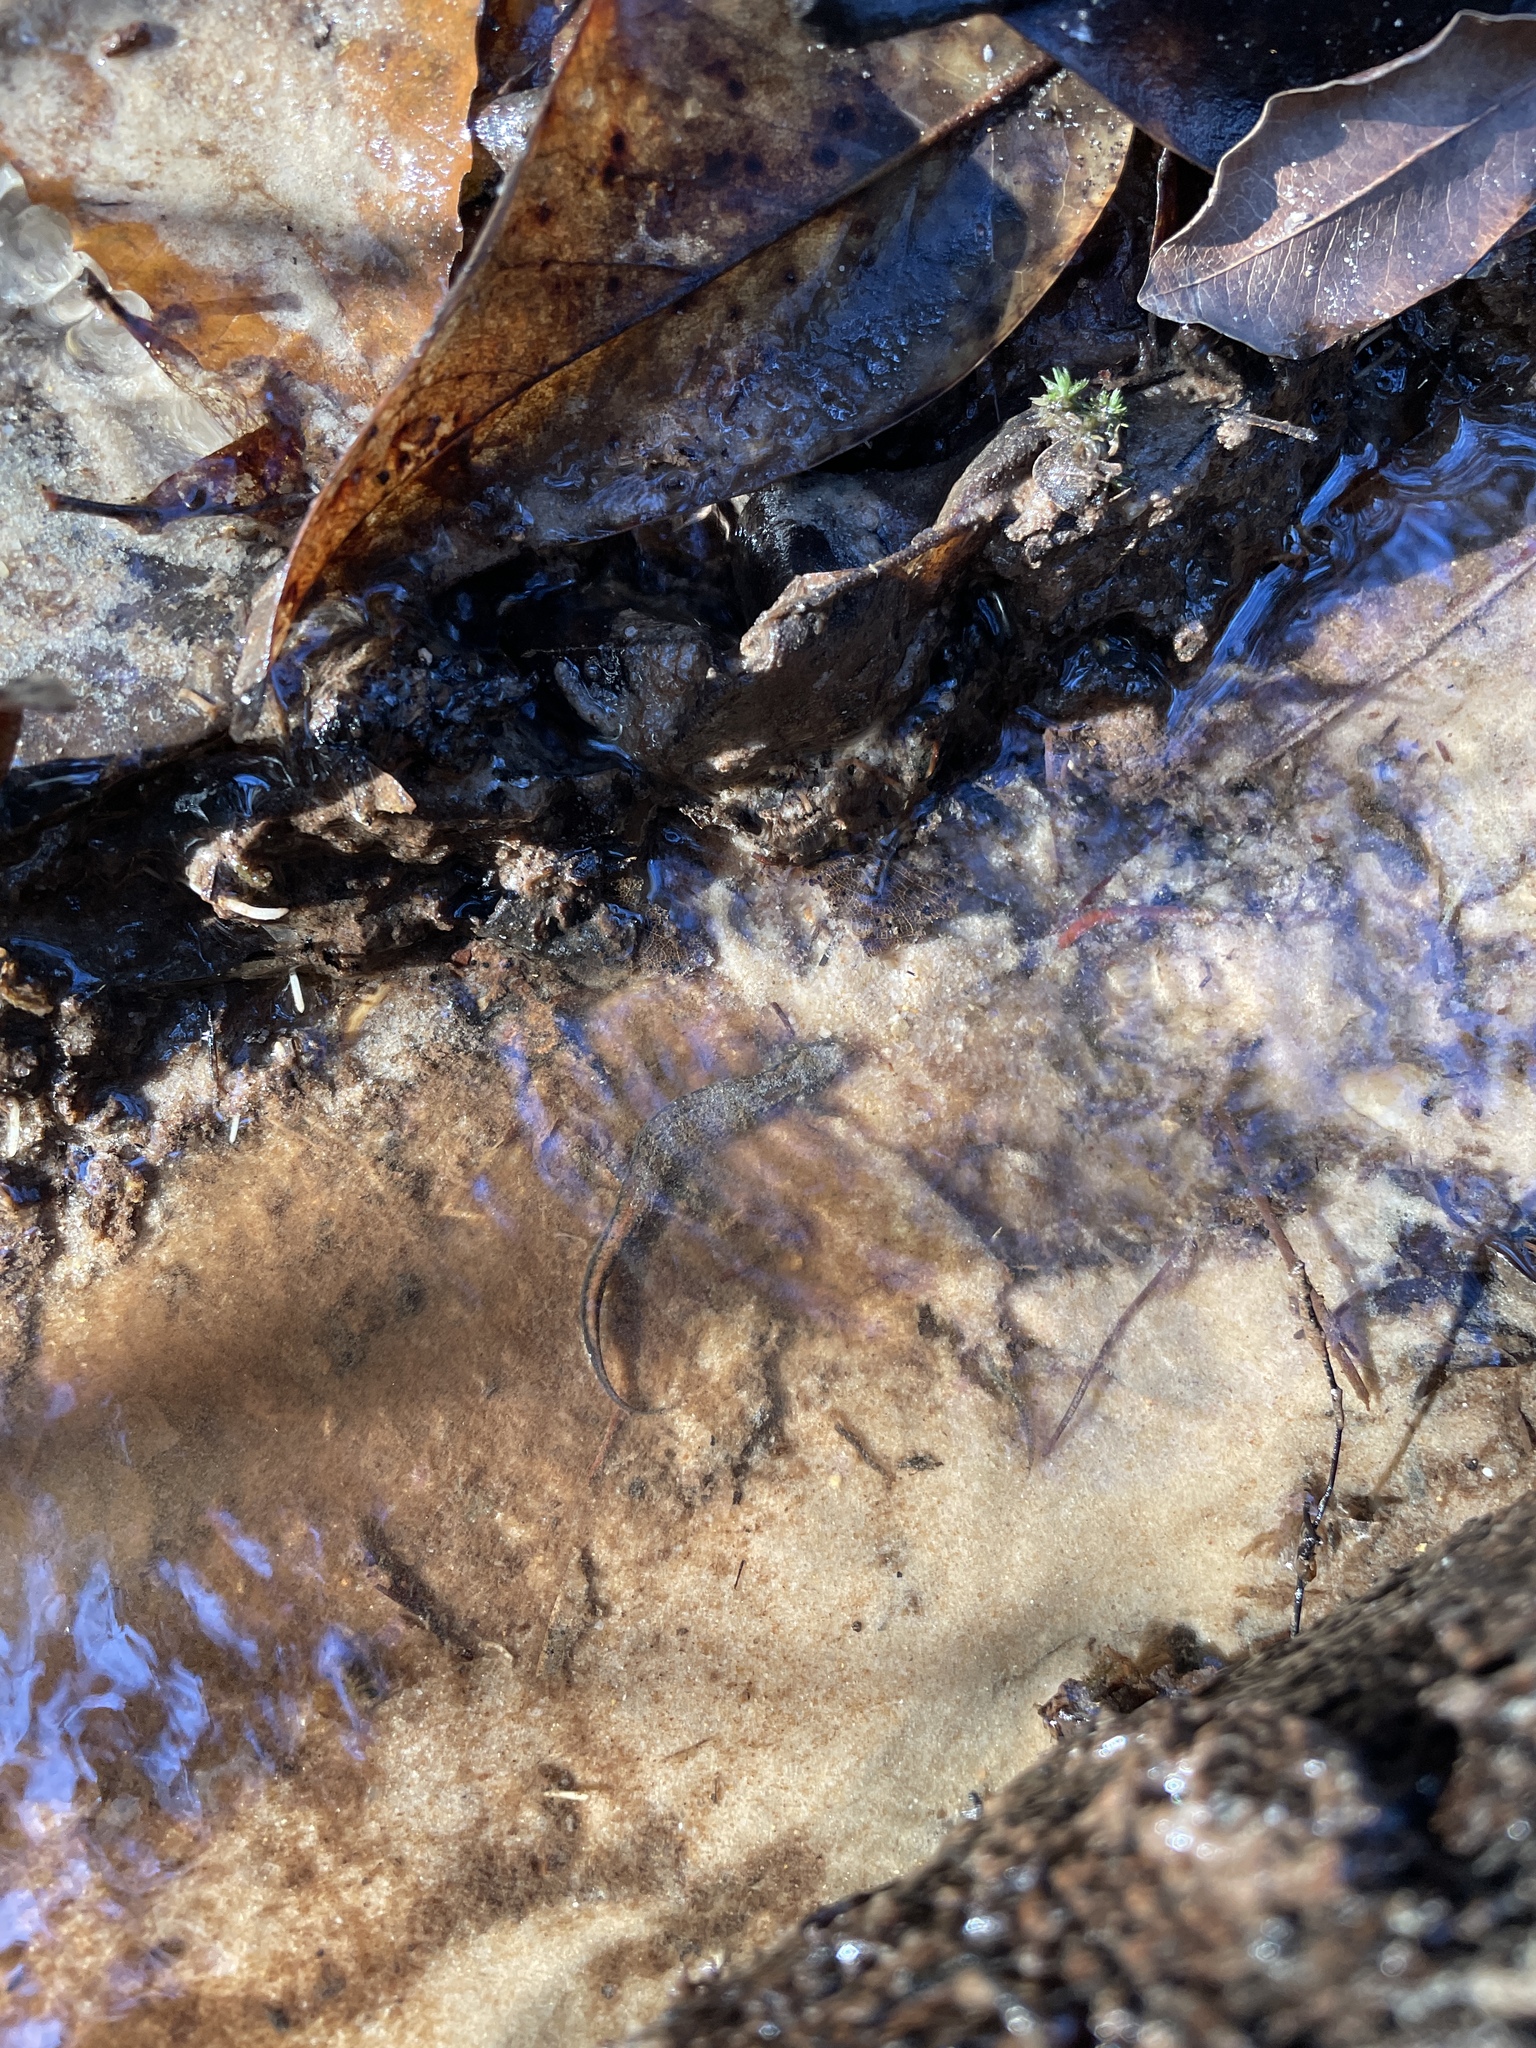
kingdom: Animalia
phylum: Chordata
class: Amphibia
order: Caudata
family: Plethodontidae
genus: Desmognathus
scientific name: Desmognathus conanti
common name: Spotted dusky salamander
